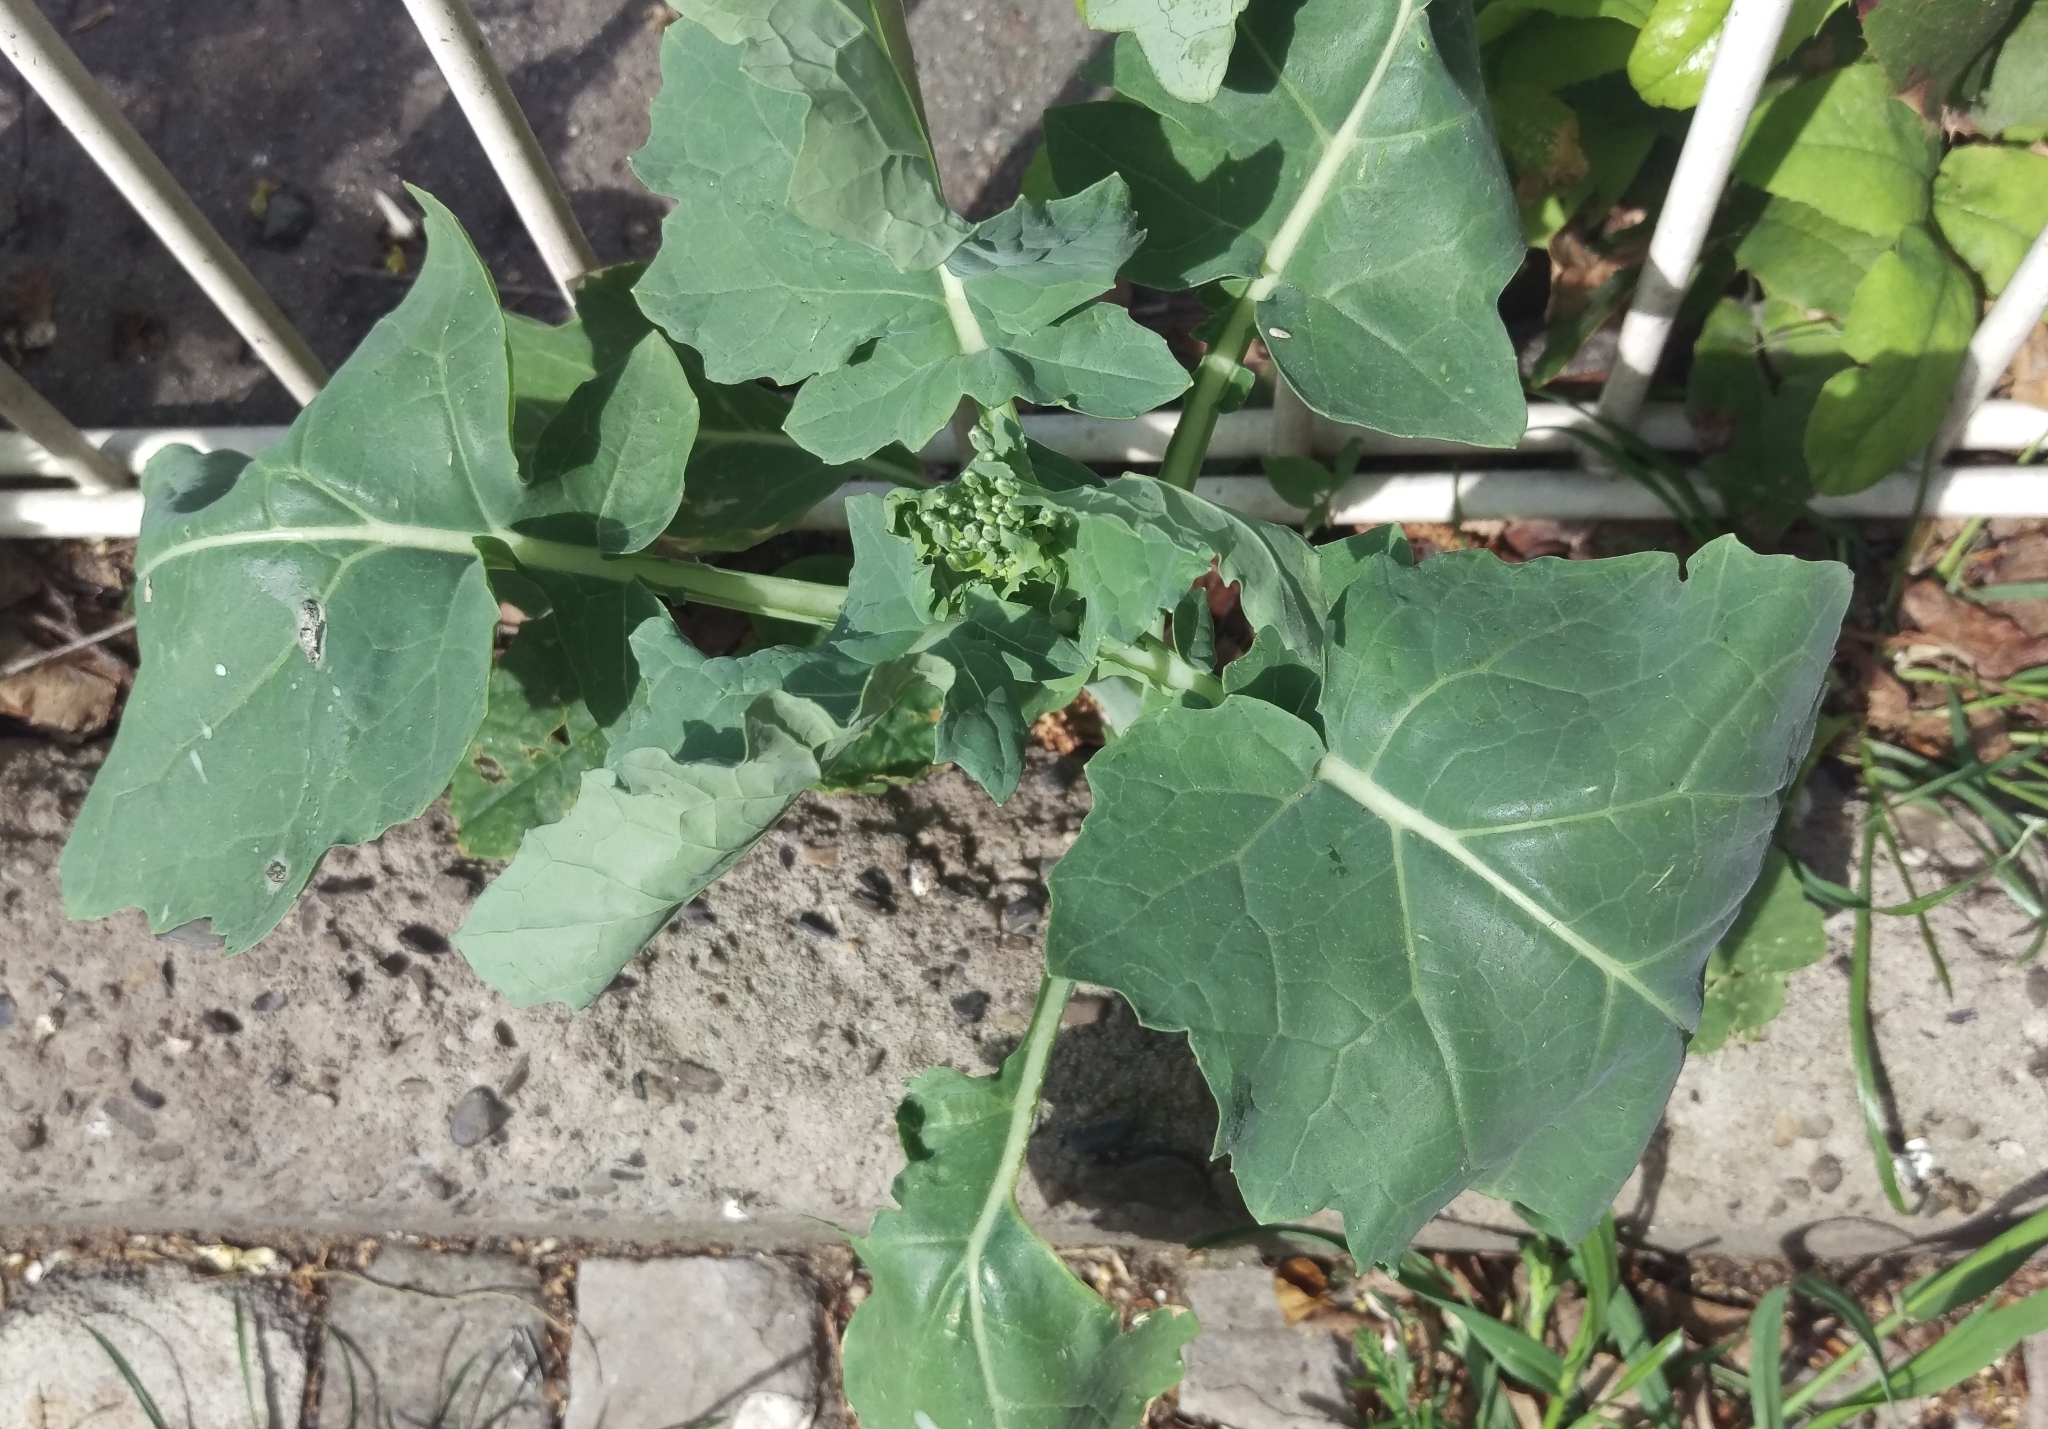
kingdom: Plantae
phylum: Tracheophyta
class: Magnoliopsida
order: Brassicales
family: Brassicaceae
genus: Brassica
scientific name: Brassica napus
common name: Rape
